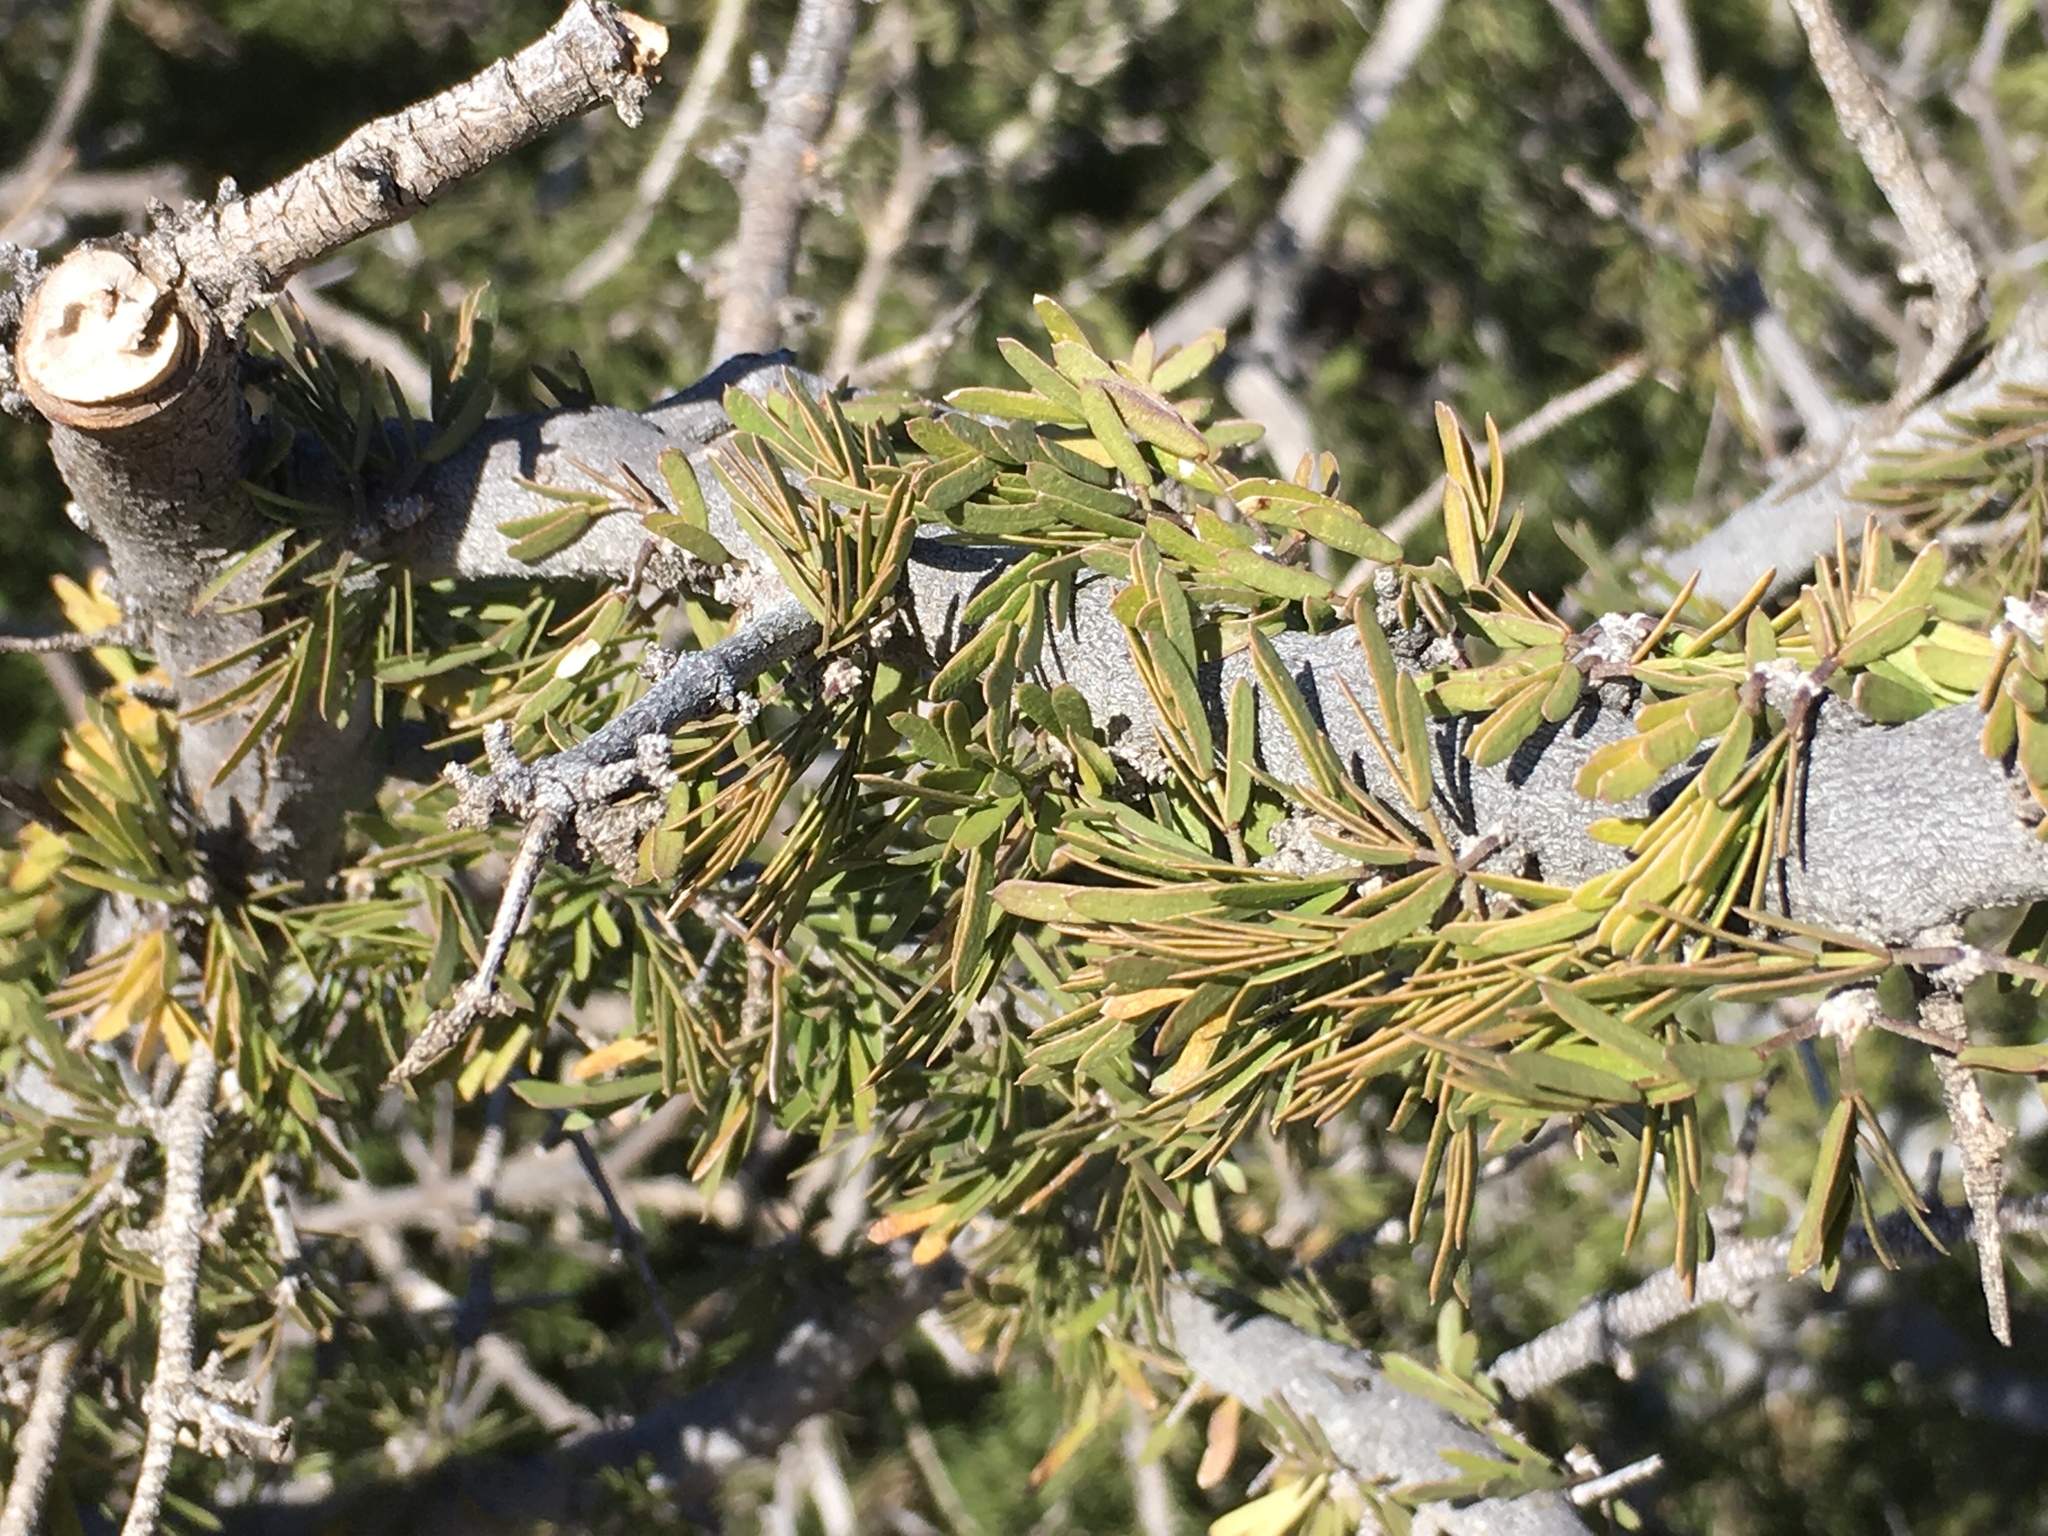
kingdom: Plantae
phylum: Tracheophyta
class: Magnoliopsida
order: Zygophyllales
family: Zygophyllaceae
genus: Porlieria
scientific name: Porlieria angustifolia
